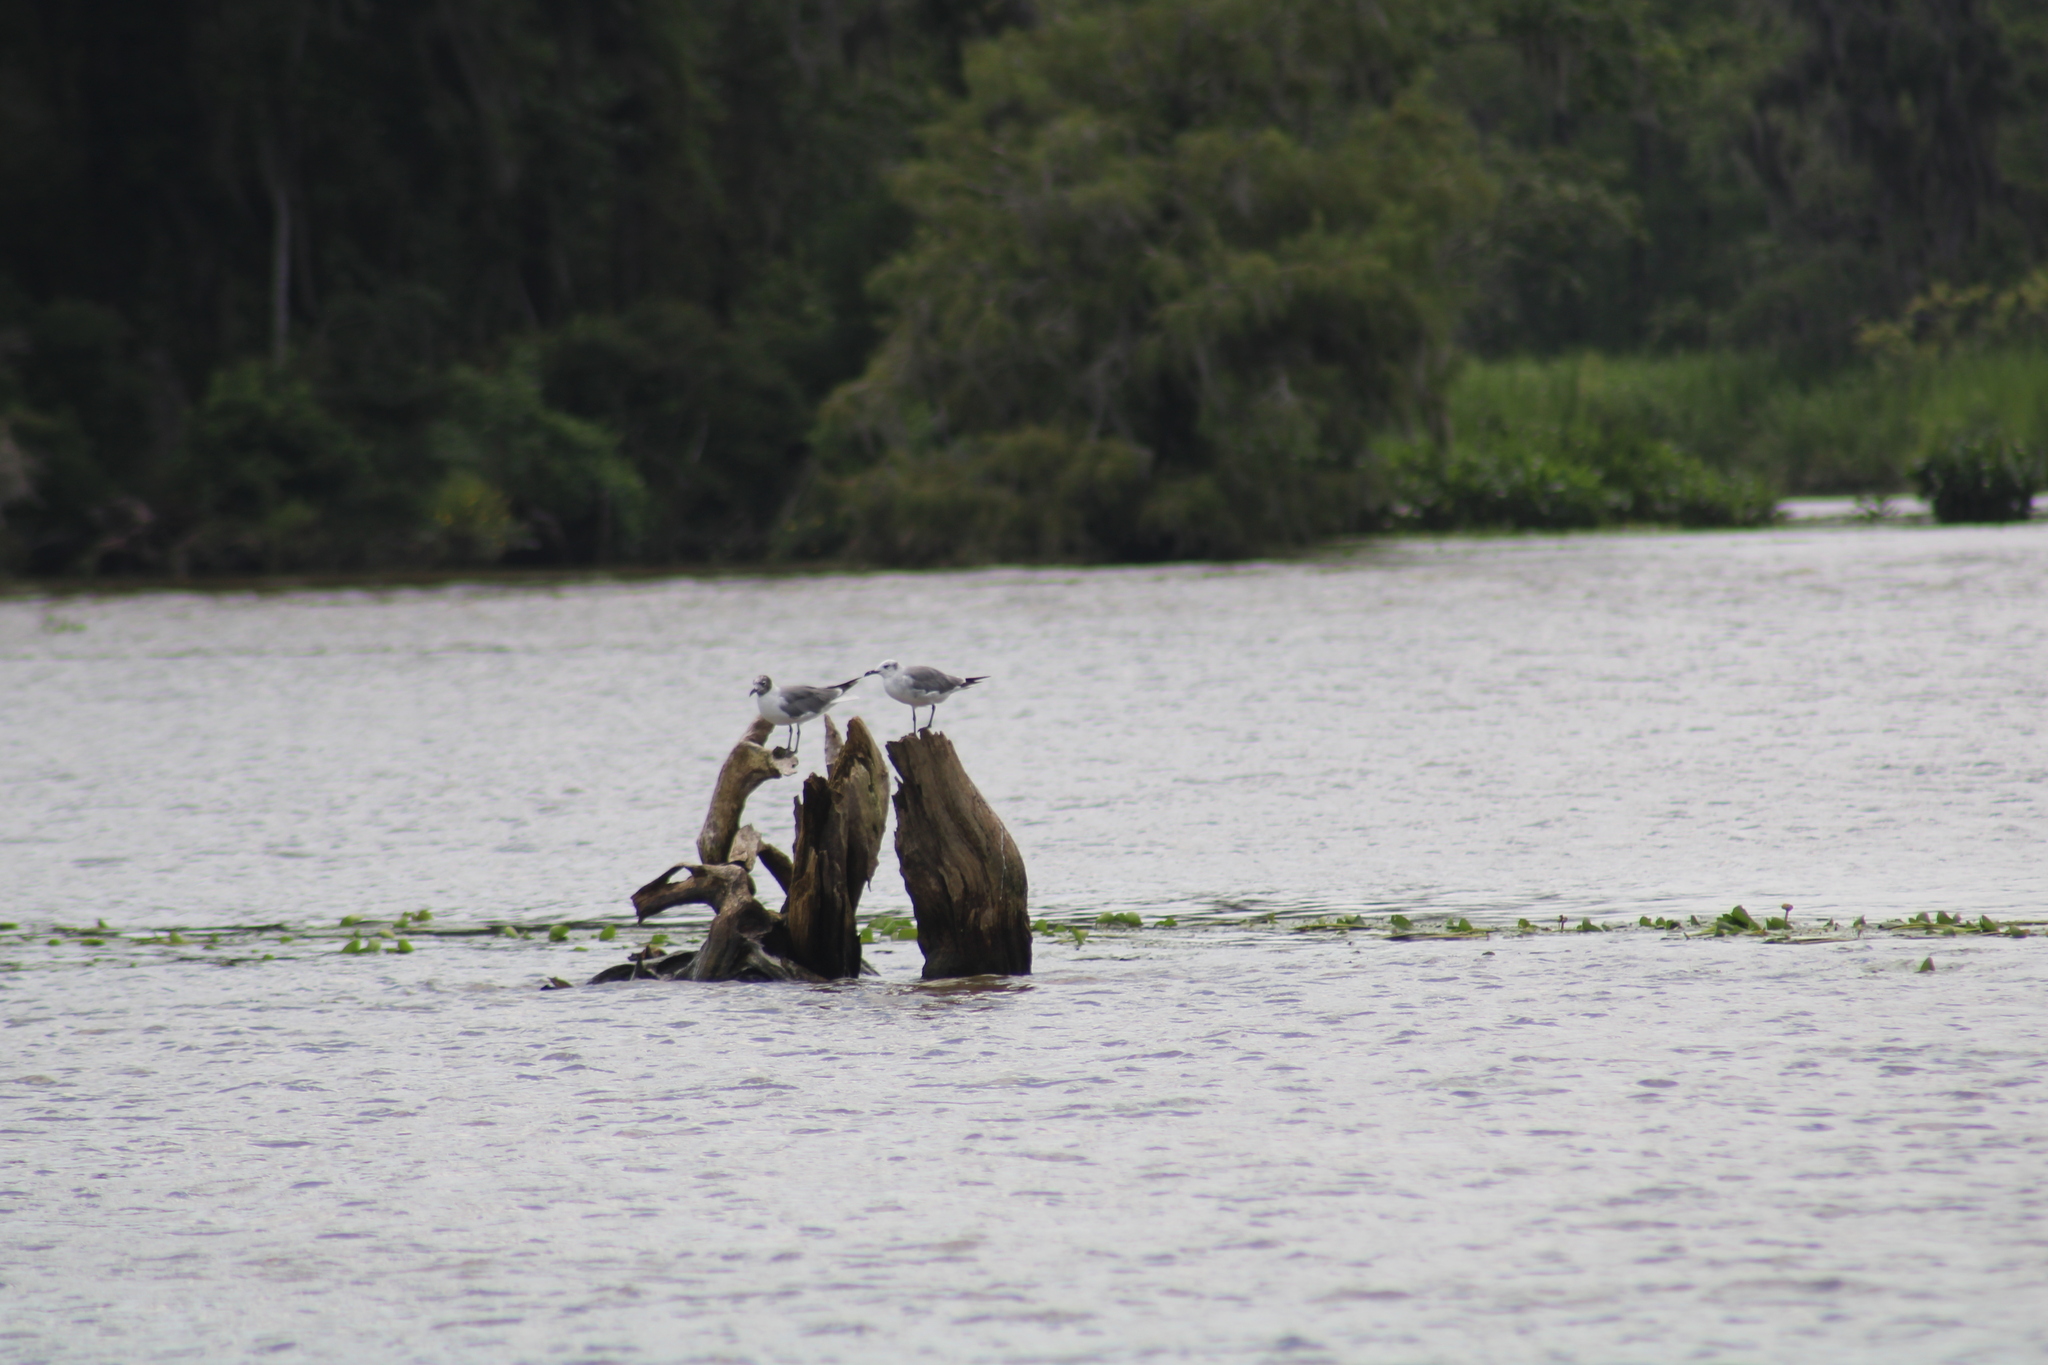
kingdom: Animalia
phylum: Chordata
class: Aves
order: Charadriiformes
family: Laridae
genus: Leucophaeus
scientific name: Leucophaeus atricilla
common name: Laughing gull
